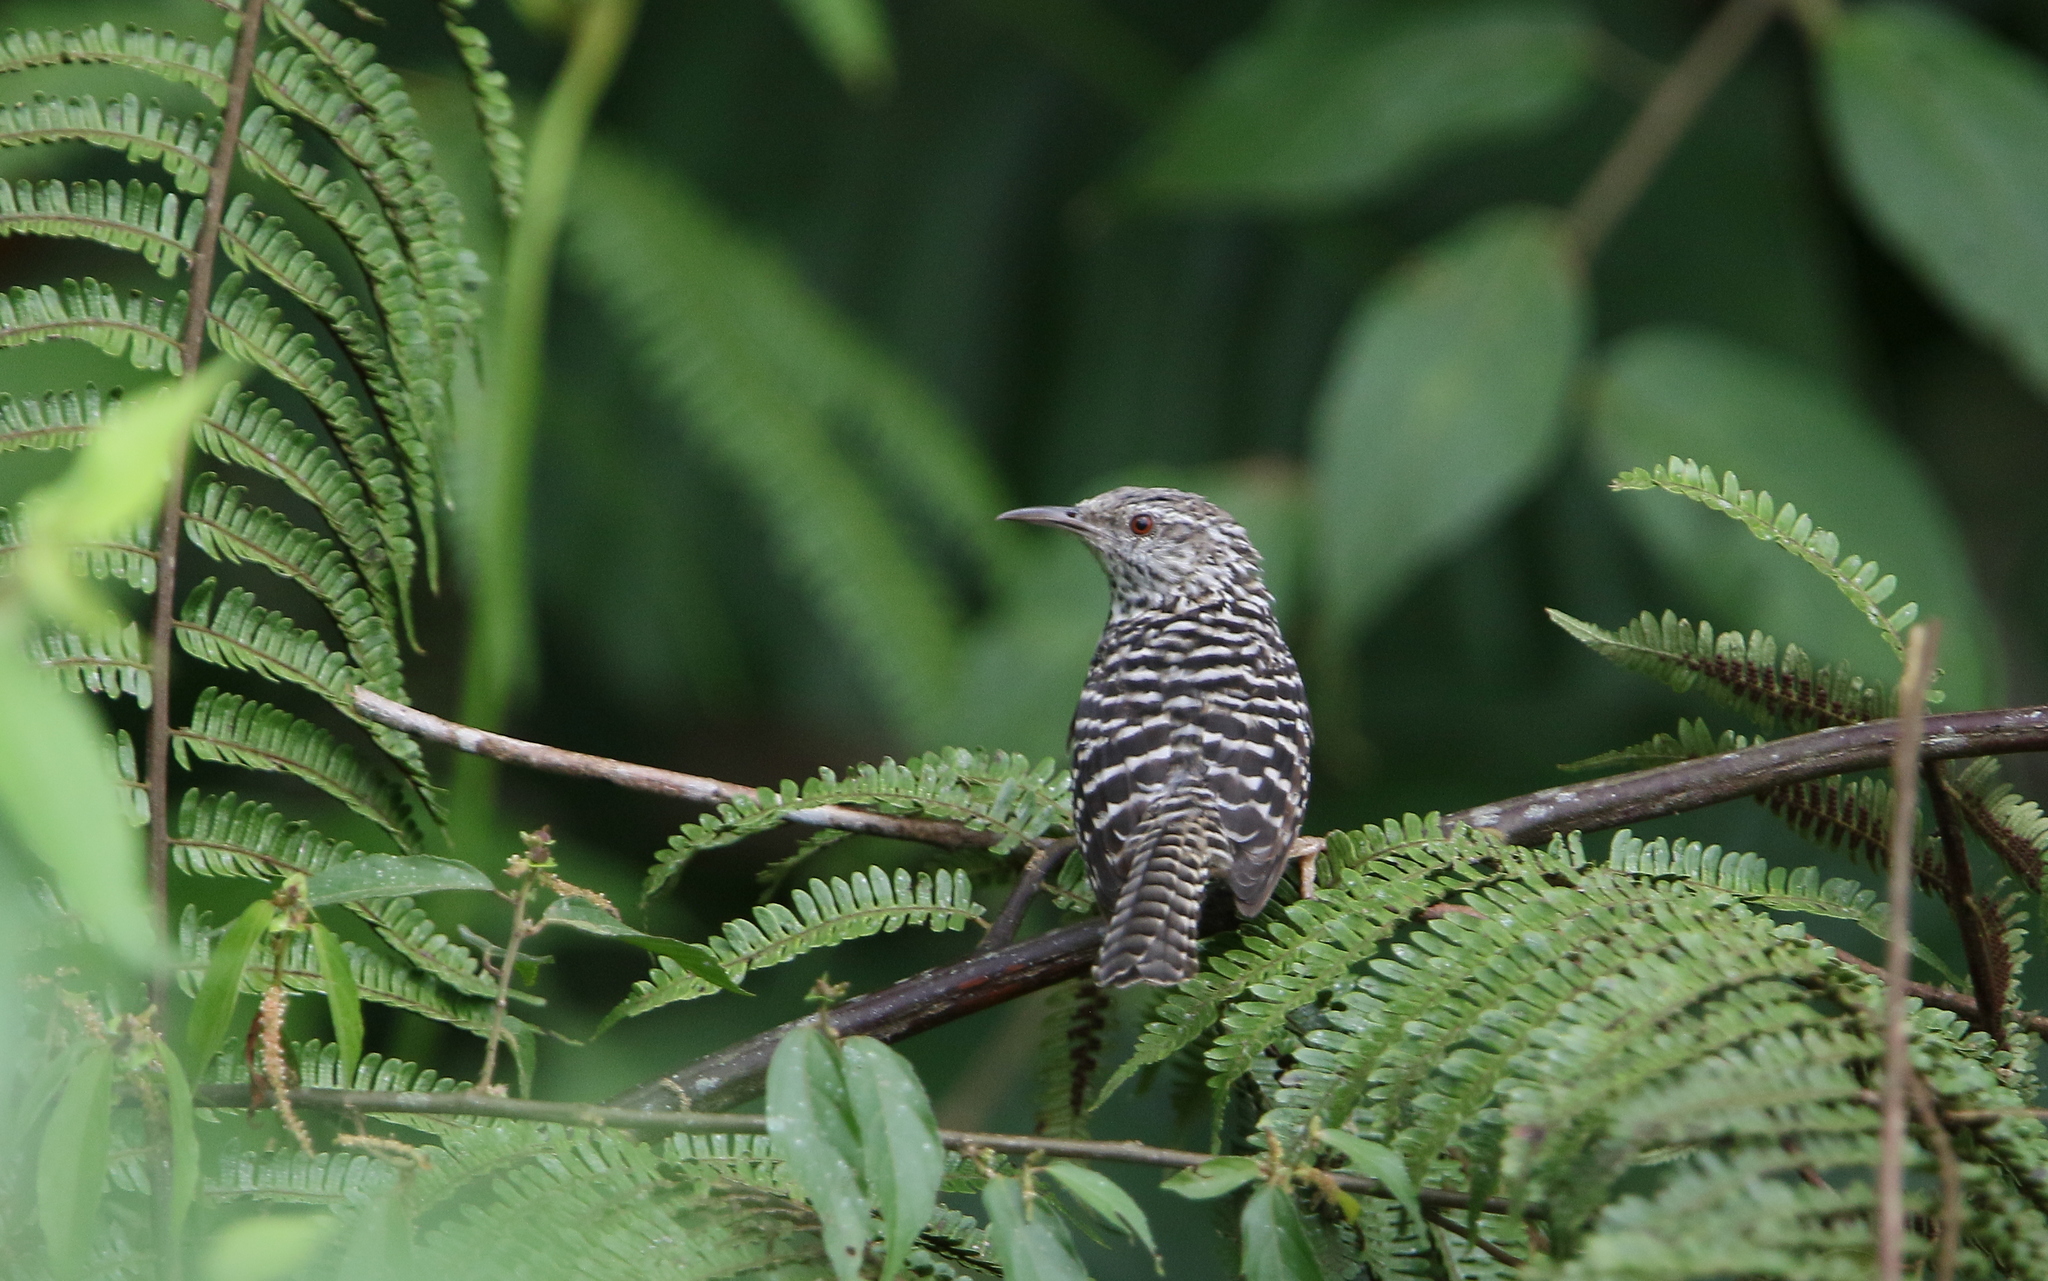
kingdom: Animalia
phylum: Chordata
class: Aves
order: Passeriformes
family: Troglodytidae
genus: Campylorhynchus
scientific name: Campylorhynchus zonatus
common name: Band-backed wren
